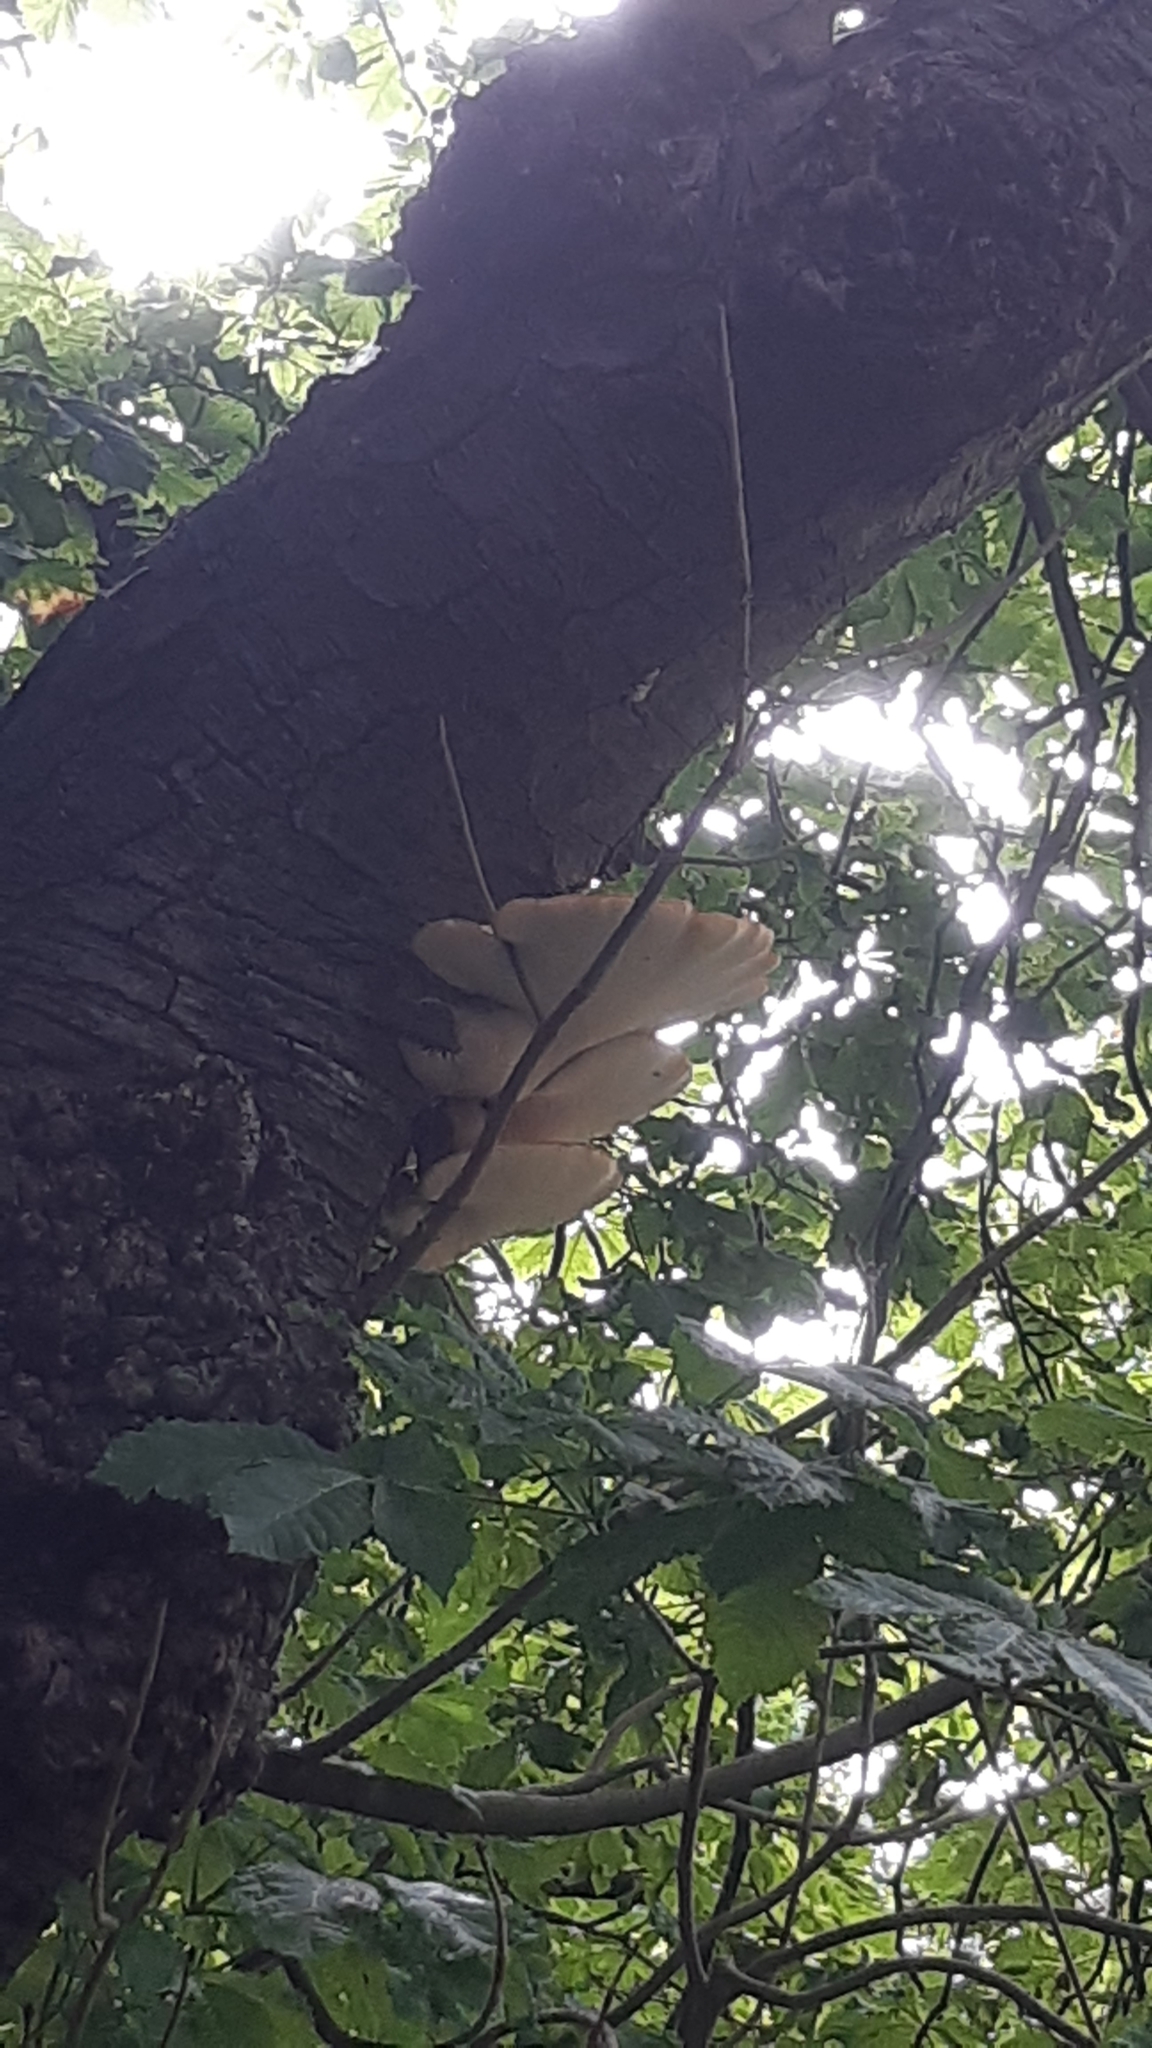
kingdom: Fungi
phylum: Basidiomycota
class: Agaricomycetes
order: Polyporales
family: Laetiporaceae
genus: Laetiporus
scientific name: Laetiporus sulphureus
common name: Chicken of the woods
